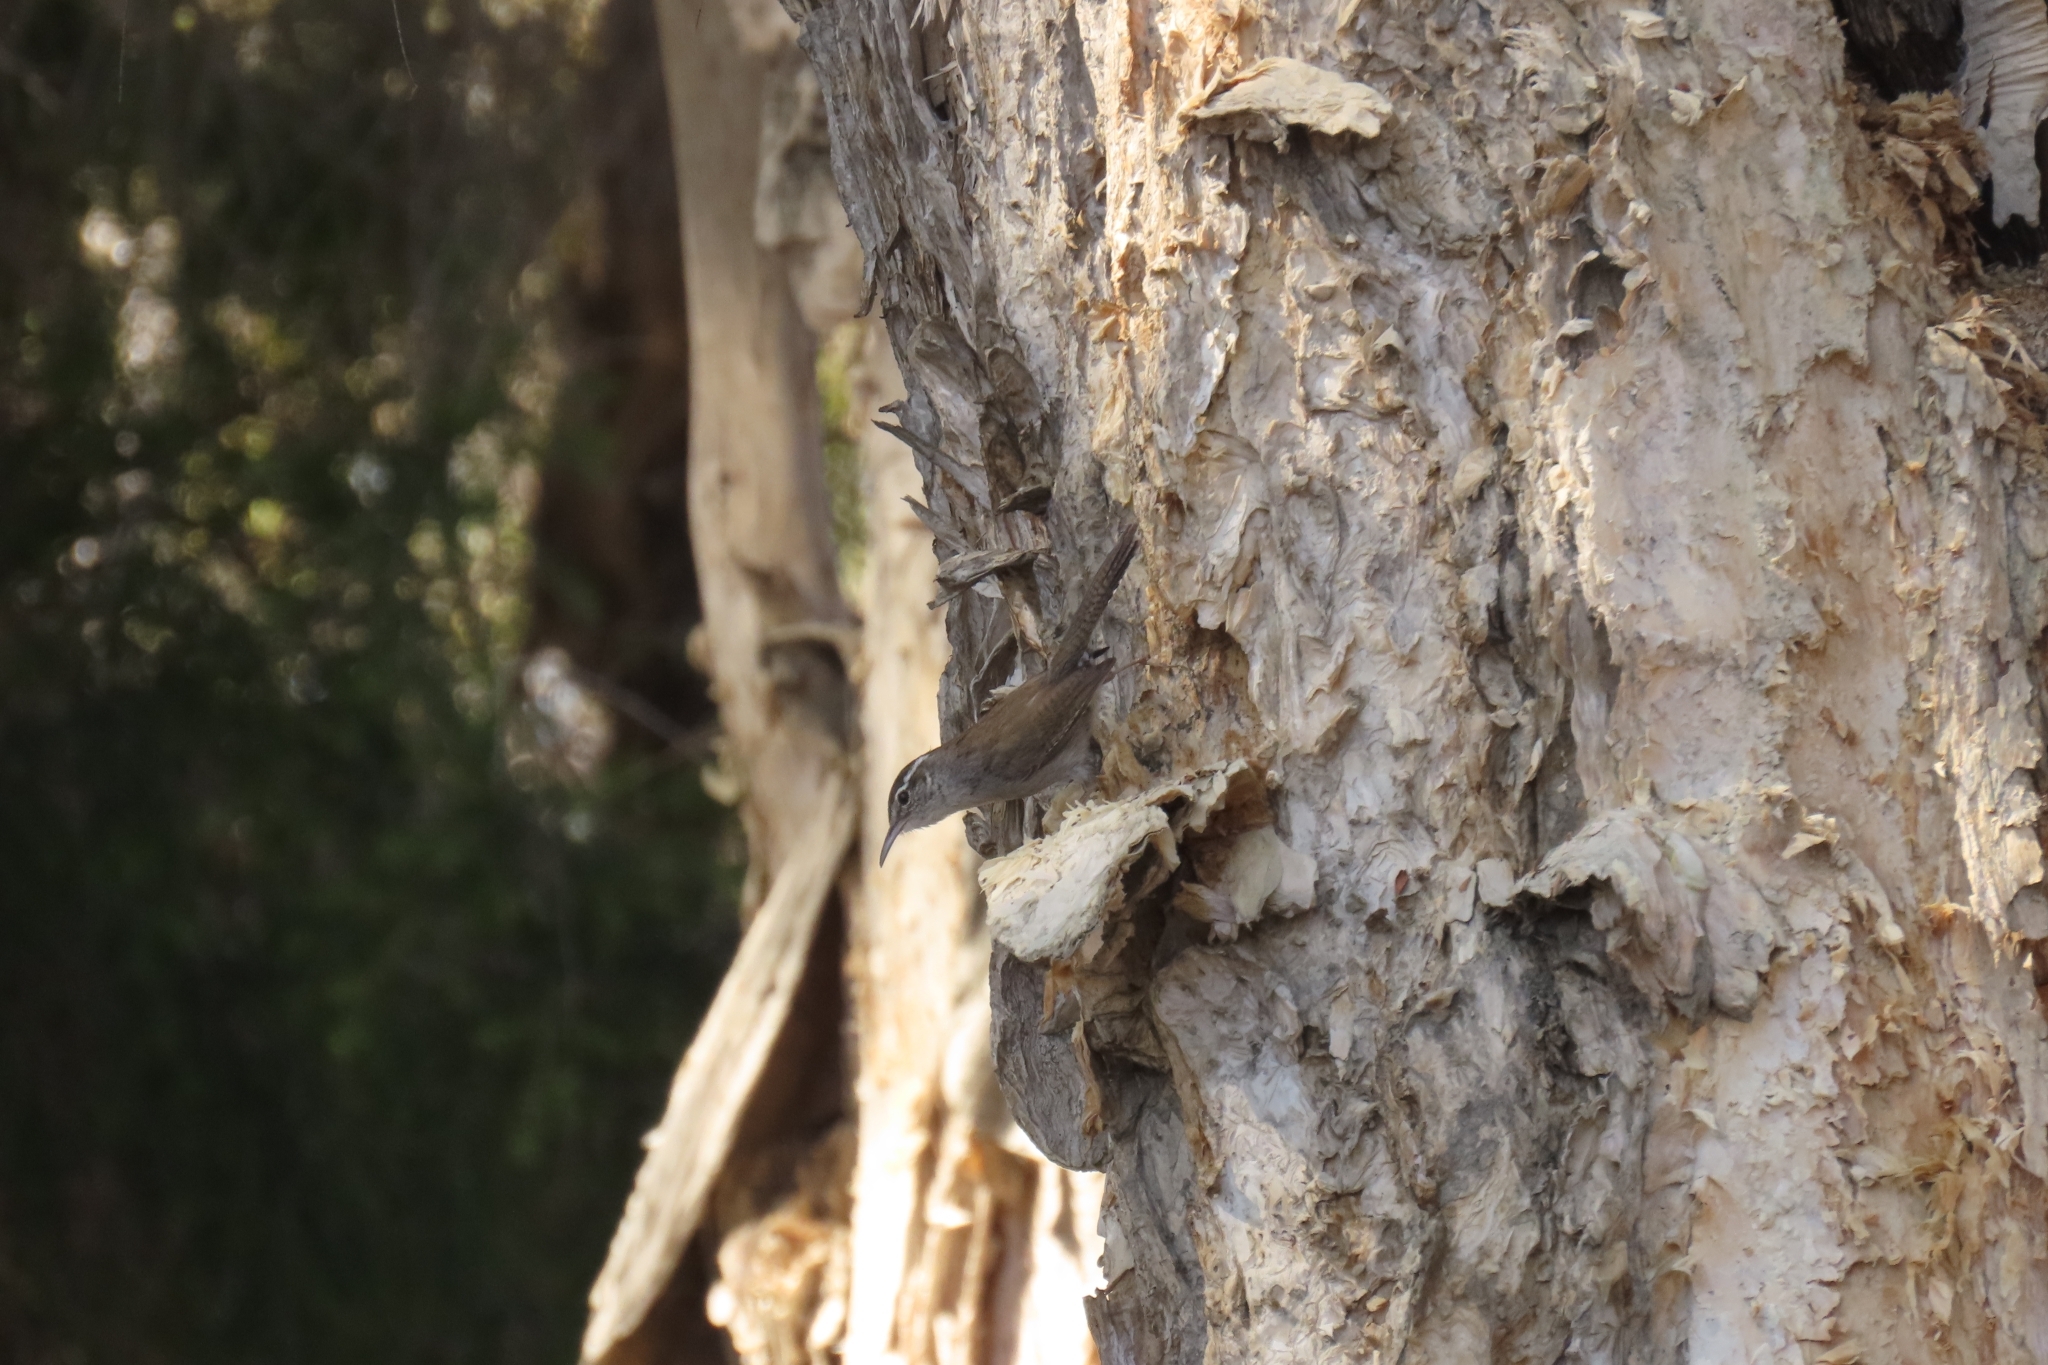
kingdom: Animalia
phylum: Chordata
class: Aves
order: Passeriformes
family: Troglodytidae
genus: Thryomanes
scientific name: Thryomanes bewickii
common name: Bewick's wren
